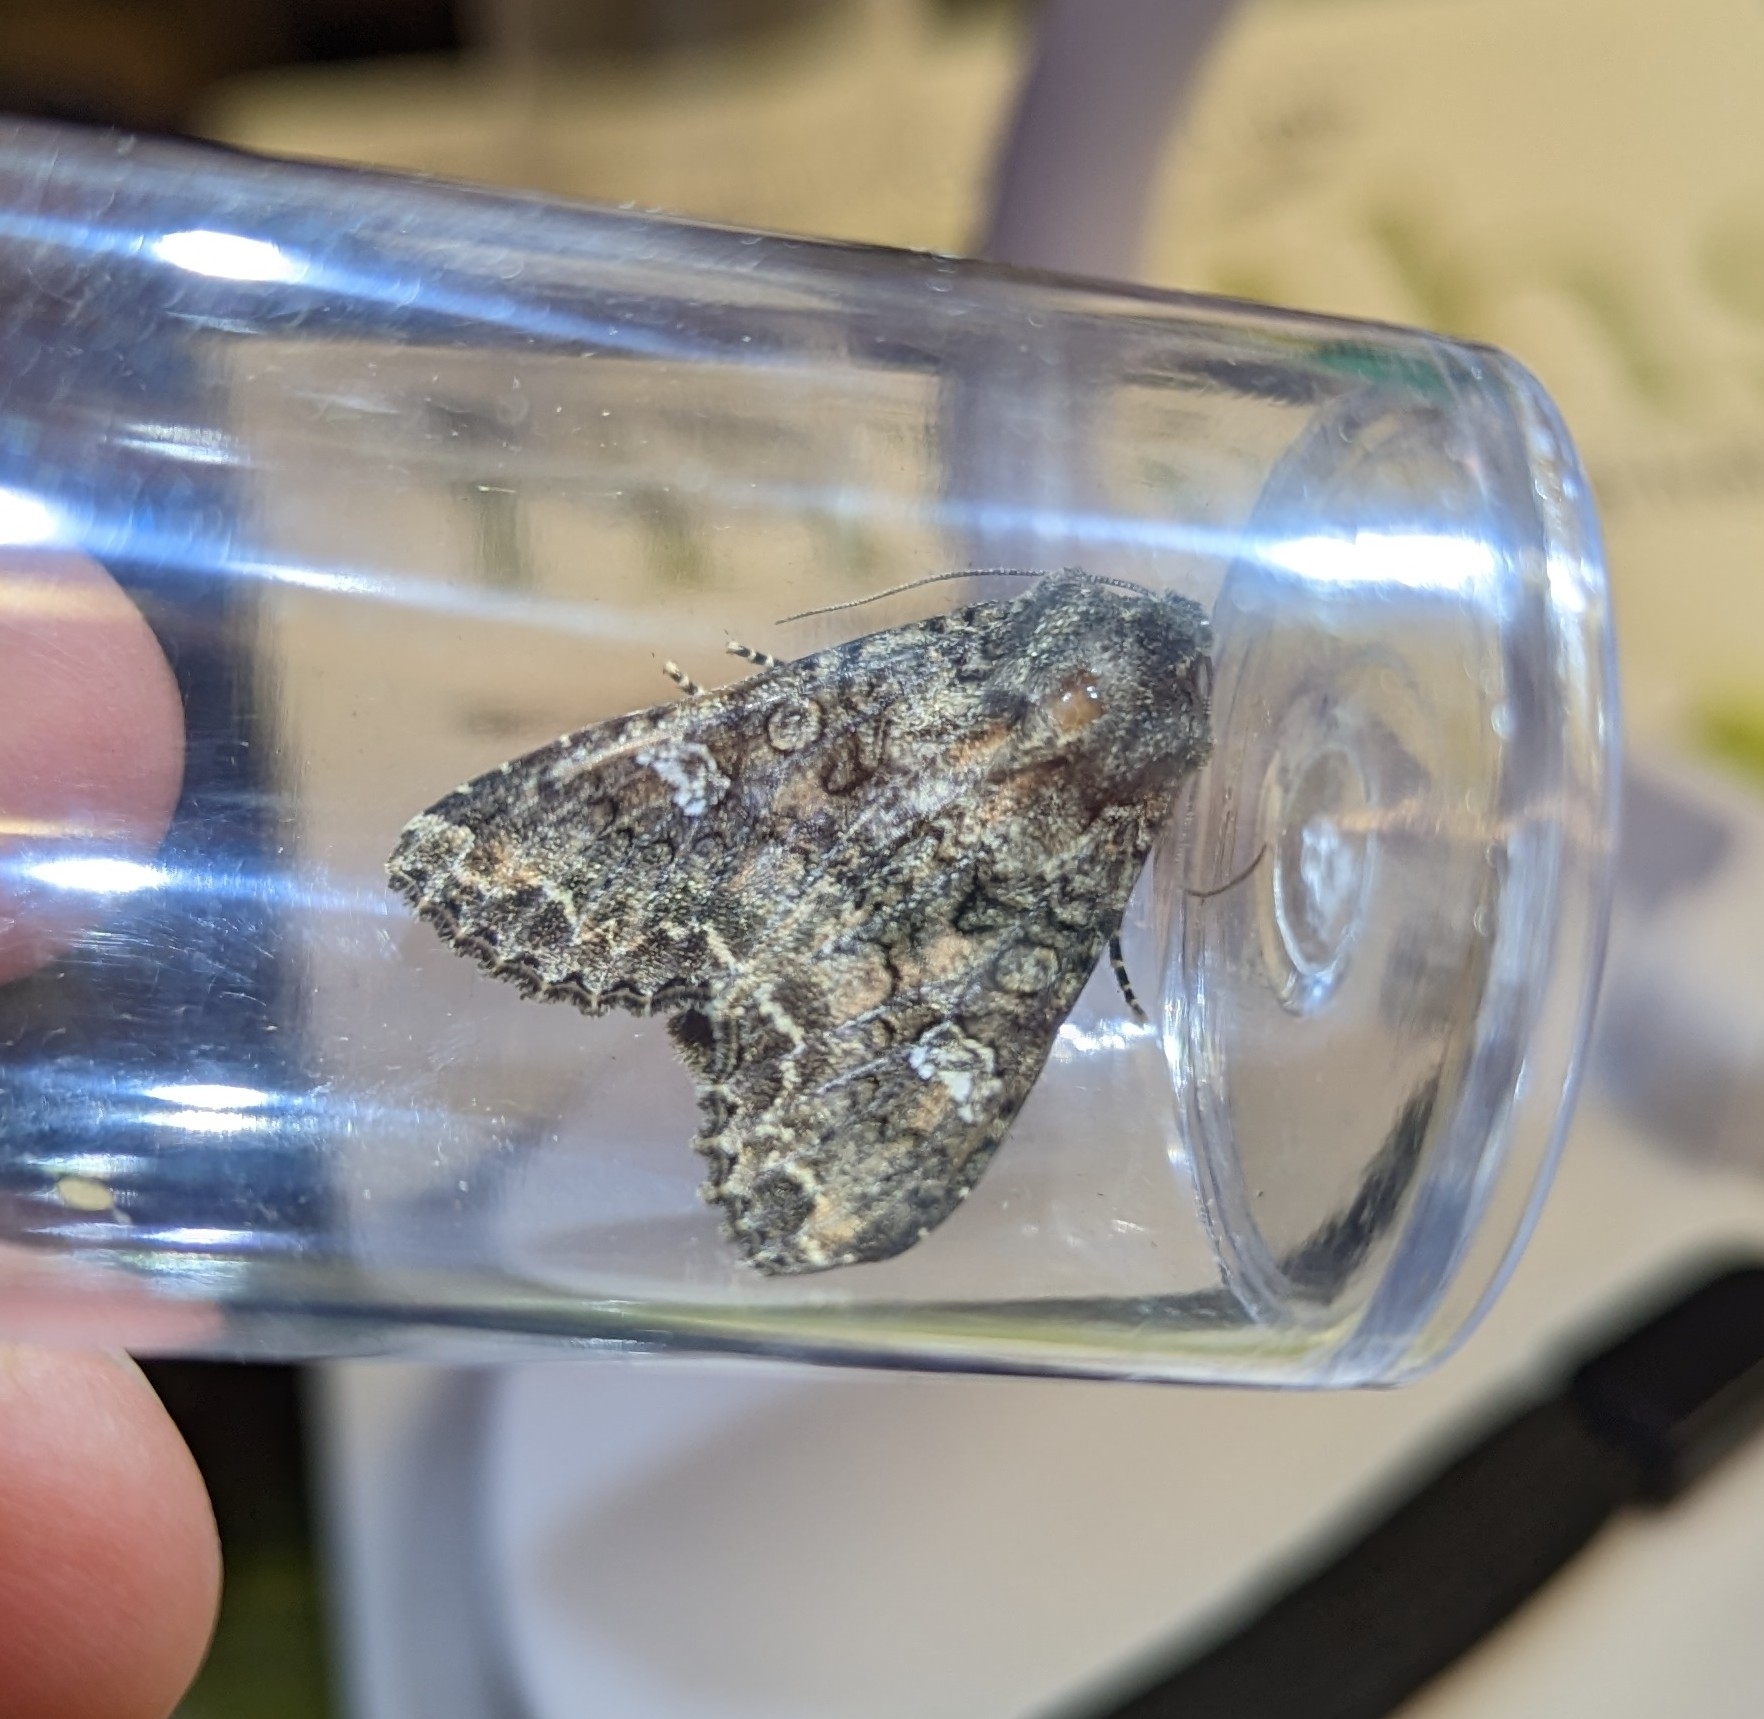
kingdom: Animalia
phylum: Arthropoda
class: Insecta
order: Lepidoptera
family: Noctuidae
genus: Mamestra
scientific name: Mamestra brassicae
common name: Cabbage moth
